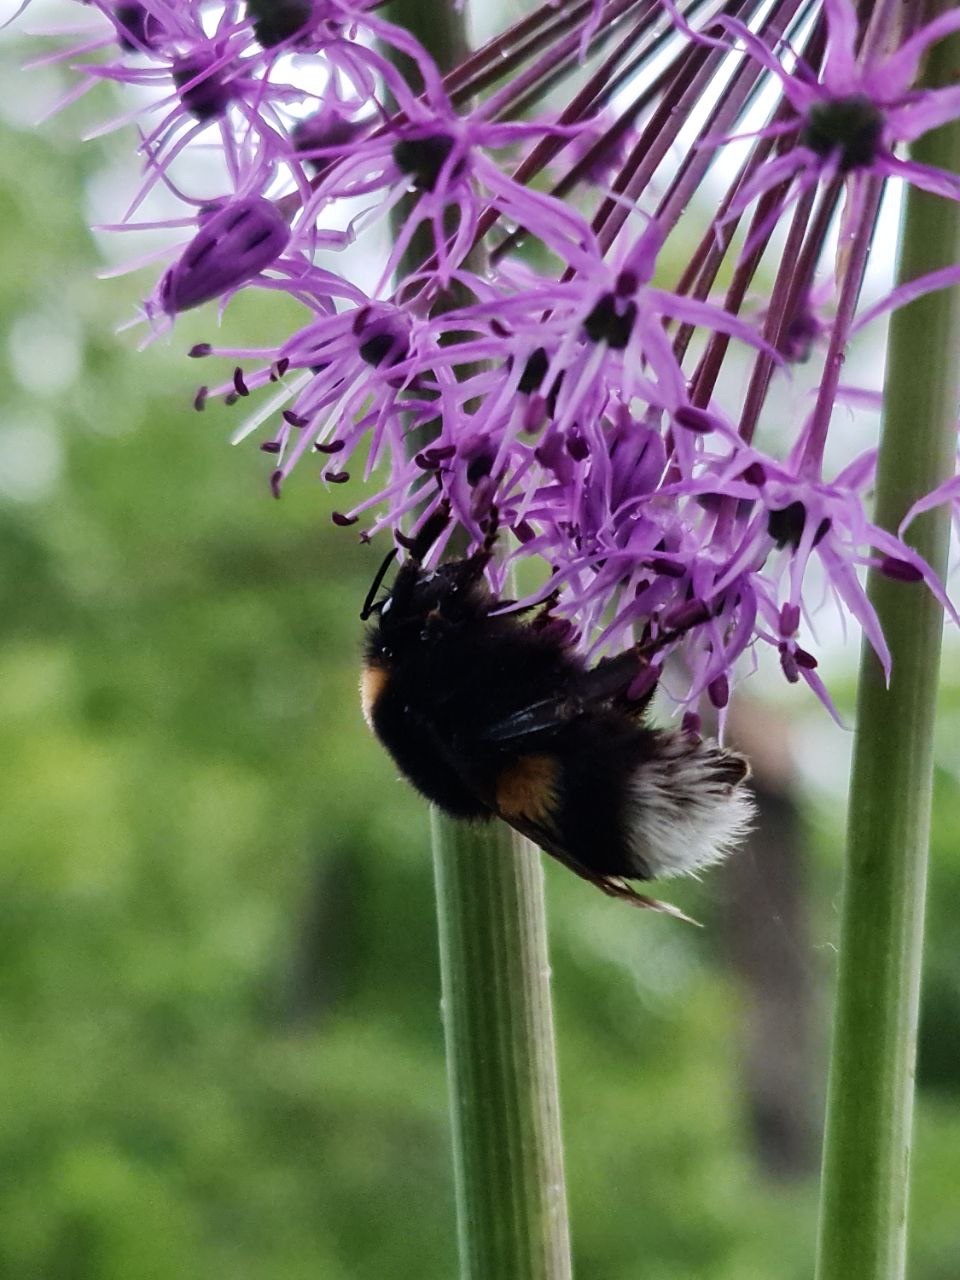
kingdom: Animalia
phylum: Arthropoda
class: Insecta
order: Hymenoptera
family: Apidae
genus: Bombus
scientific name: Bombus
